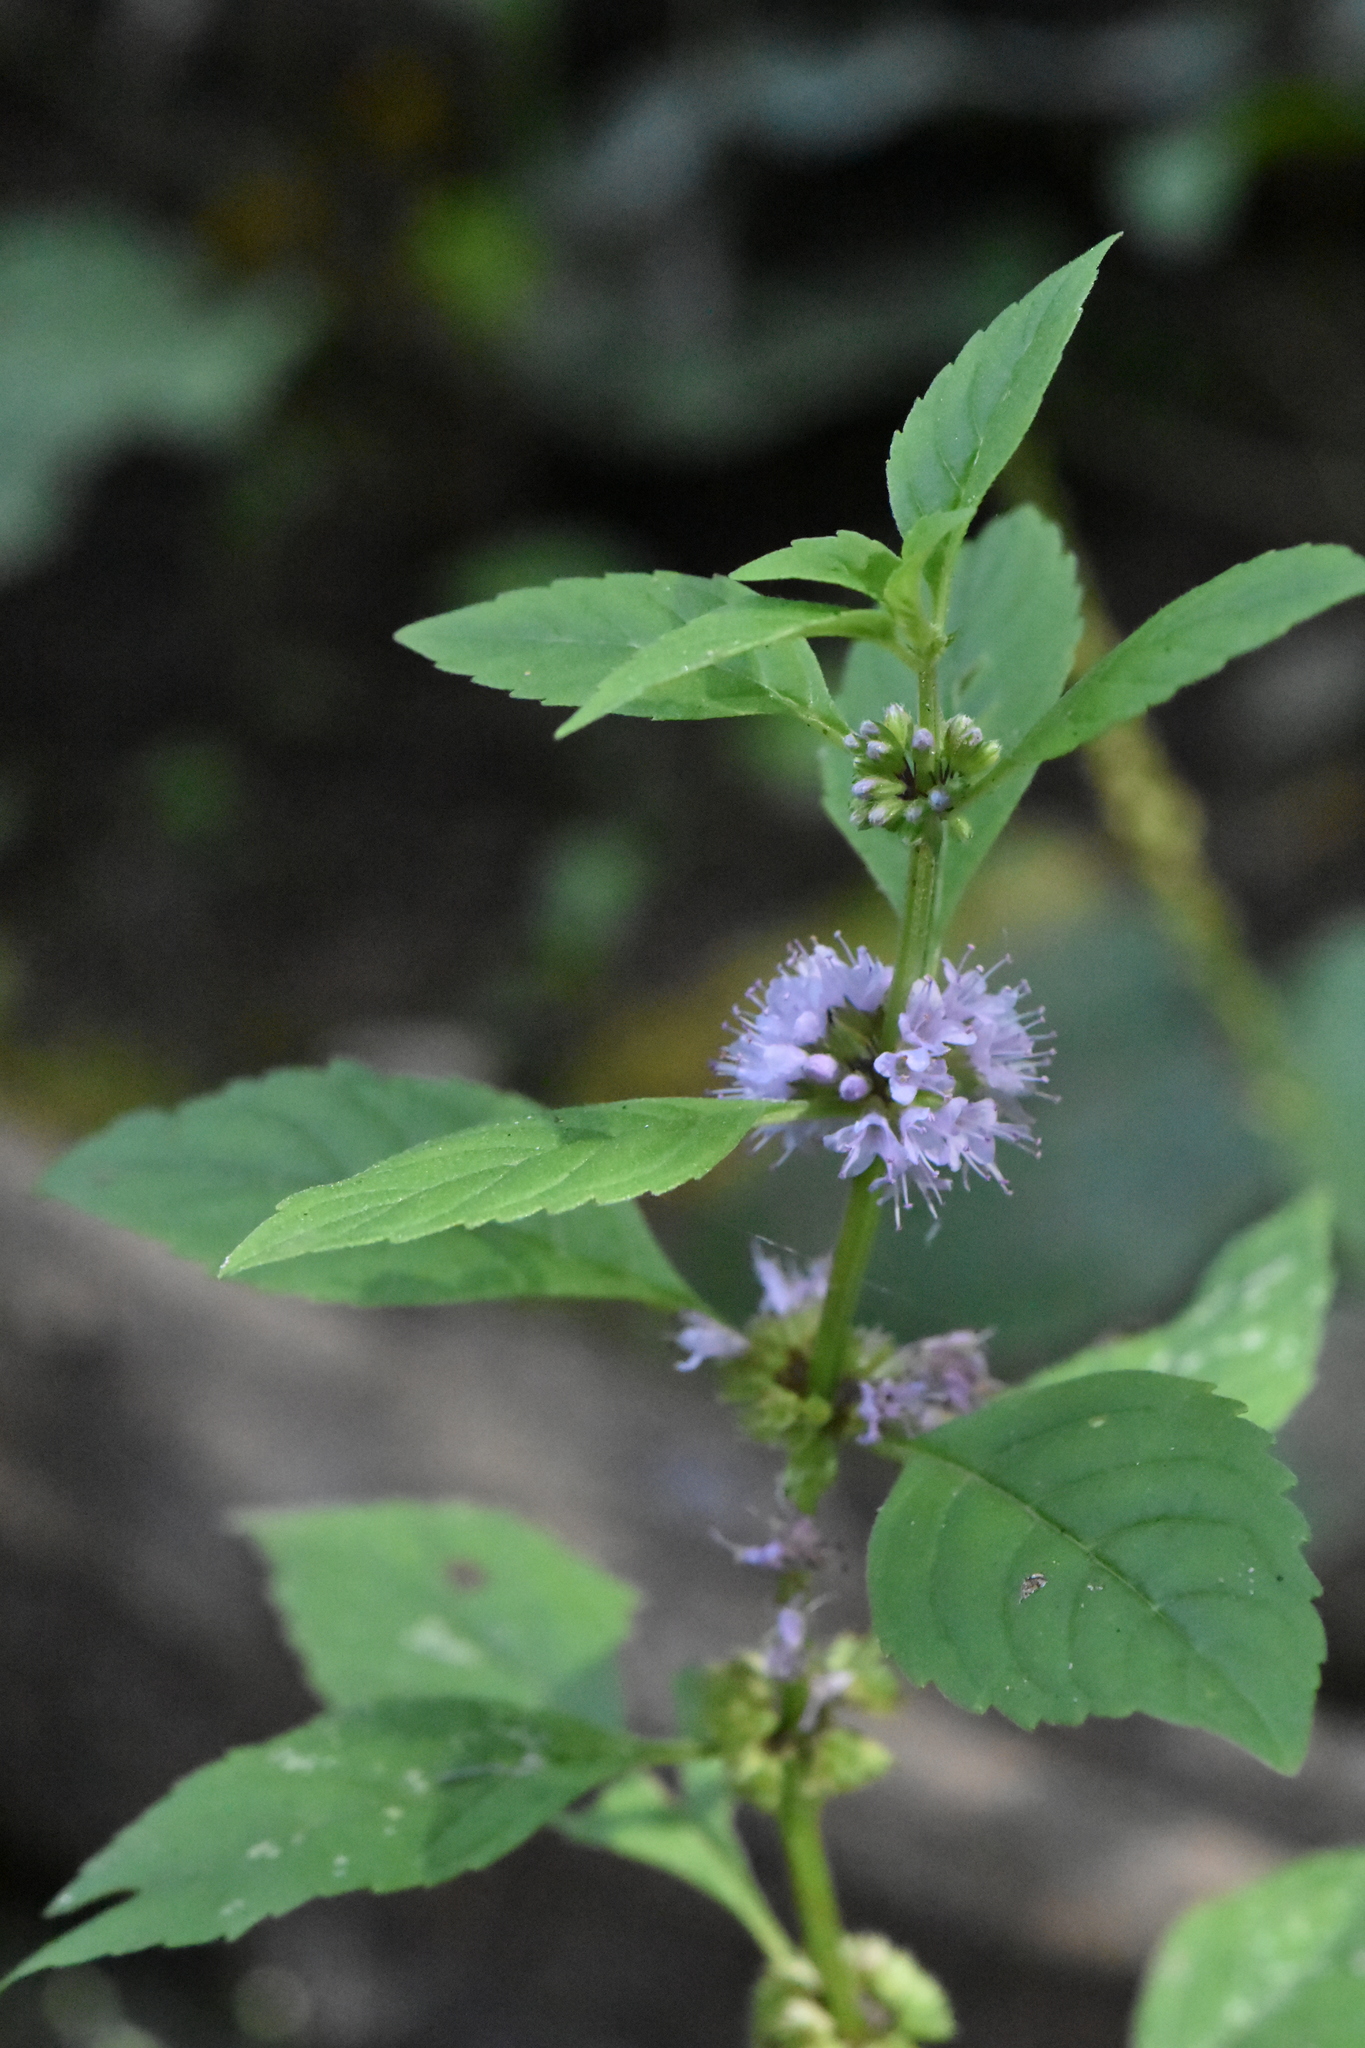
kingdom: Plantae
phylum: Tracheophyta
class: Magnoliopsida
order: Lamiales
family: Lamiaceae
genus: Mentha
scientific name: Mentha arvensis
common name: Corn mint
